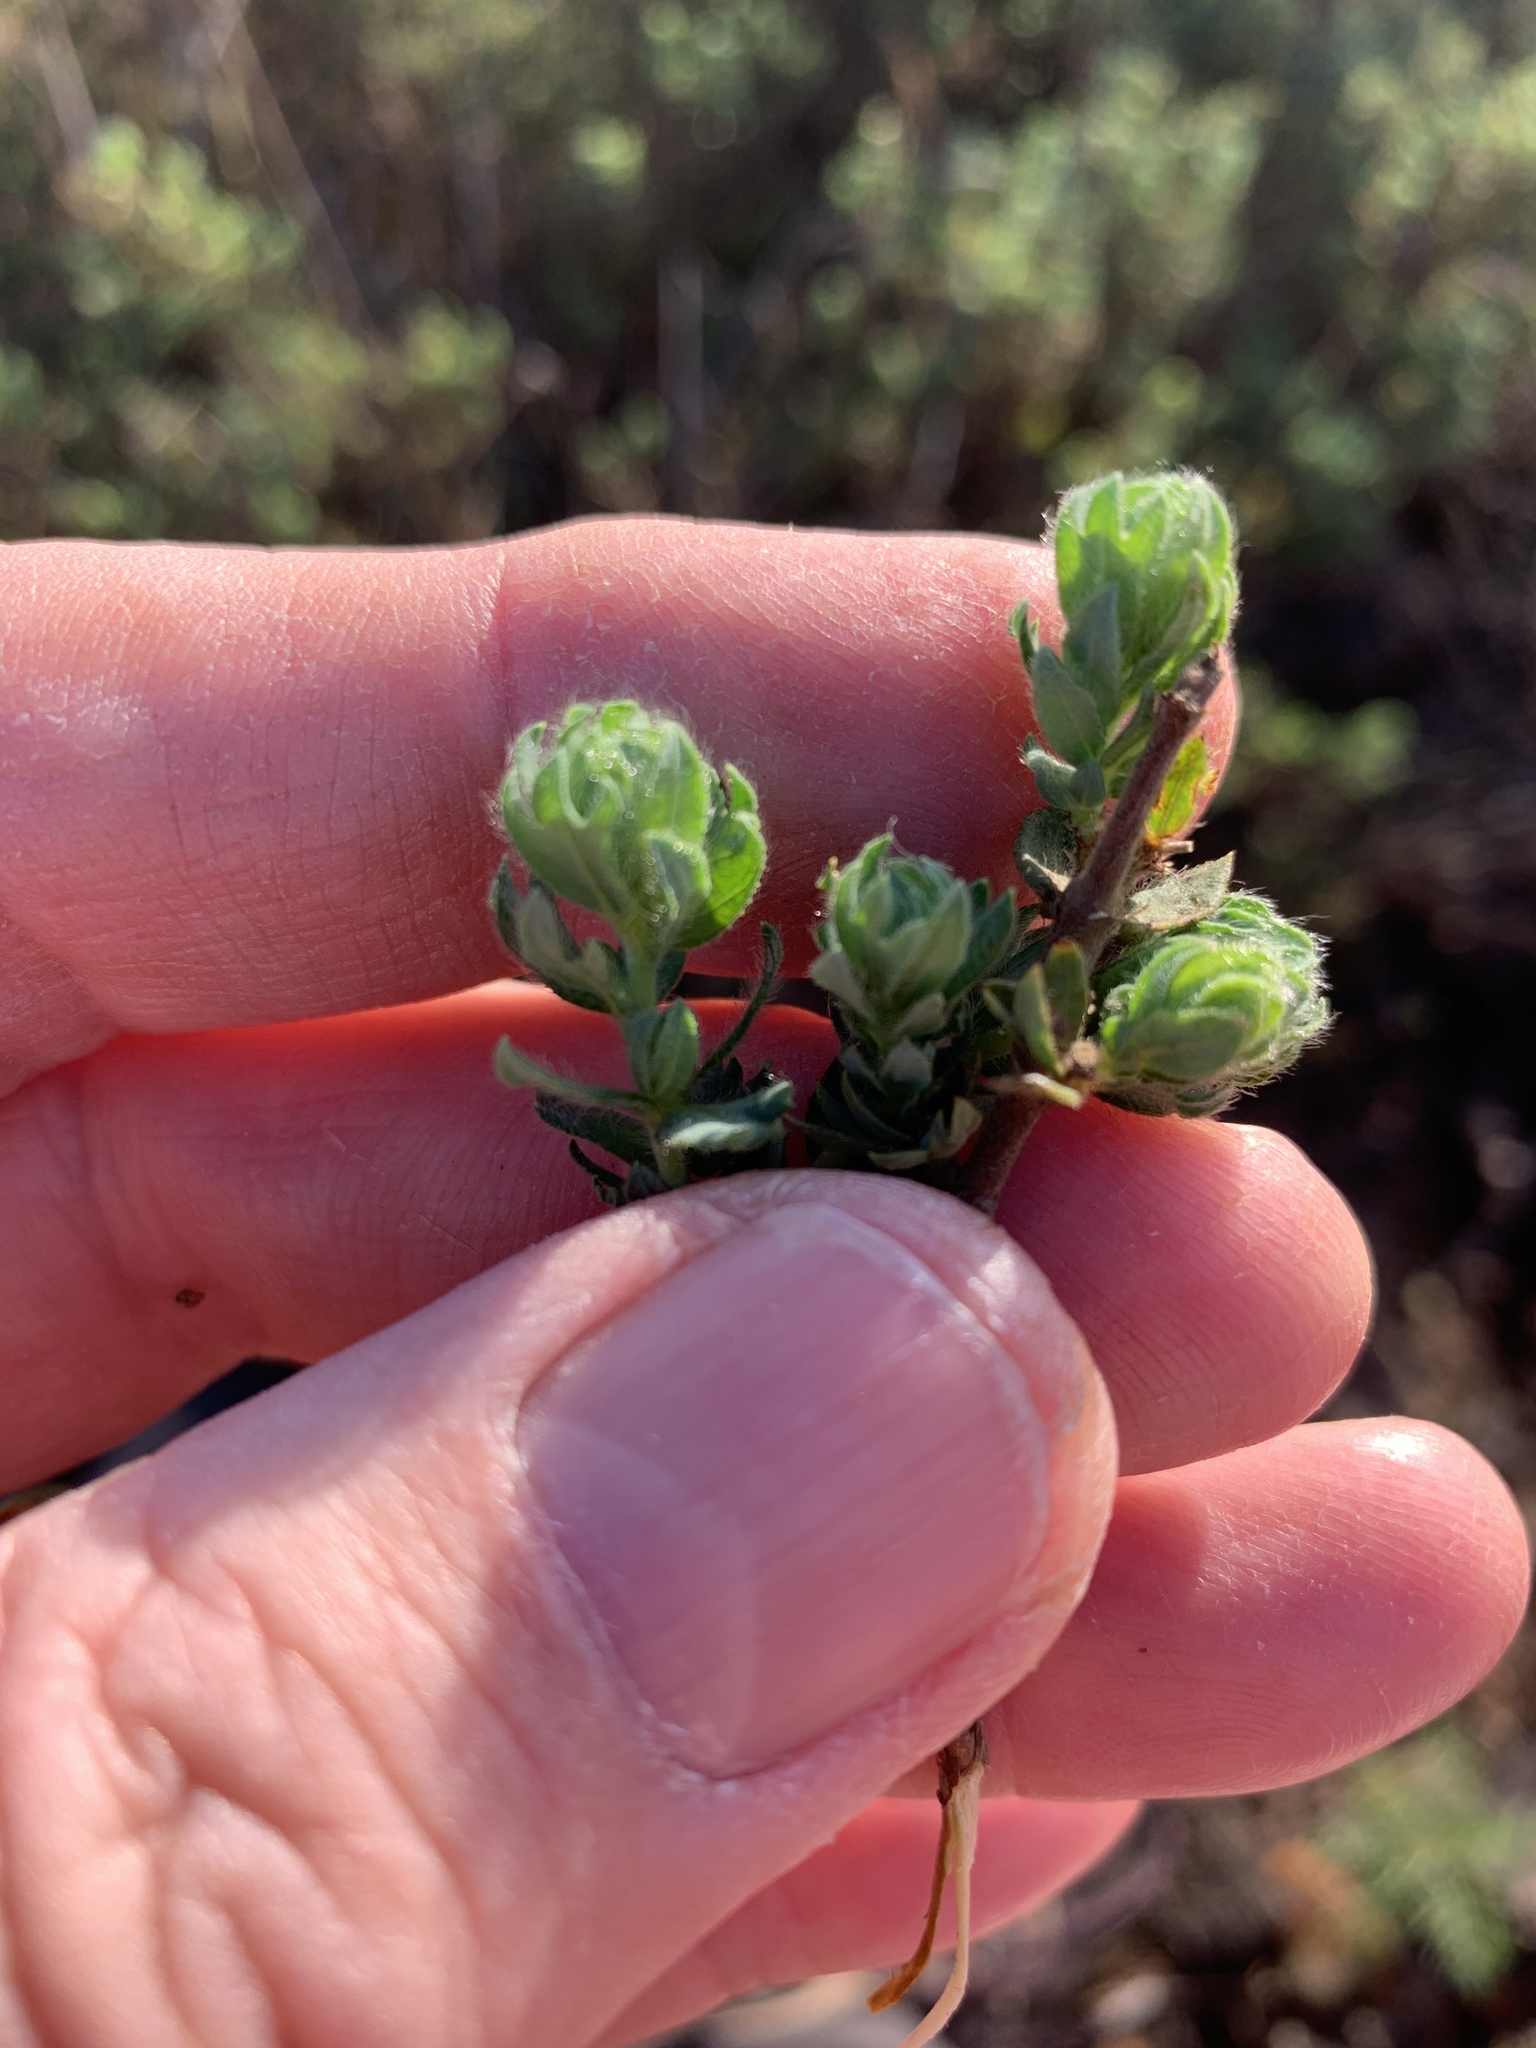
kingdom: Plantae
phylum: Tracheophyta
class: Magnoliopsida
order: Rosales
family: Rosaceae
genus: Cliffortia
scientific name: Cliffortia polygonifolia
